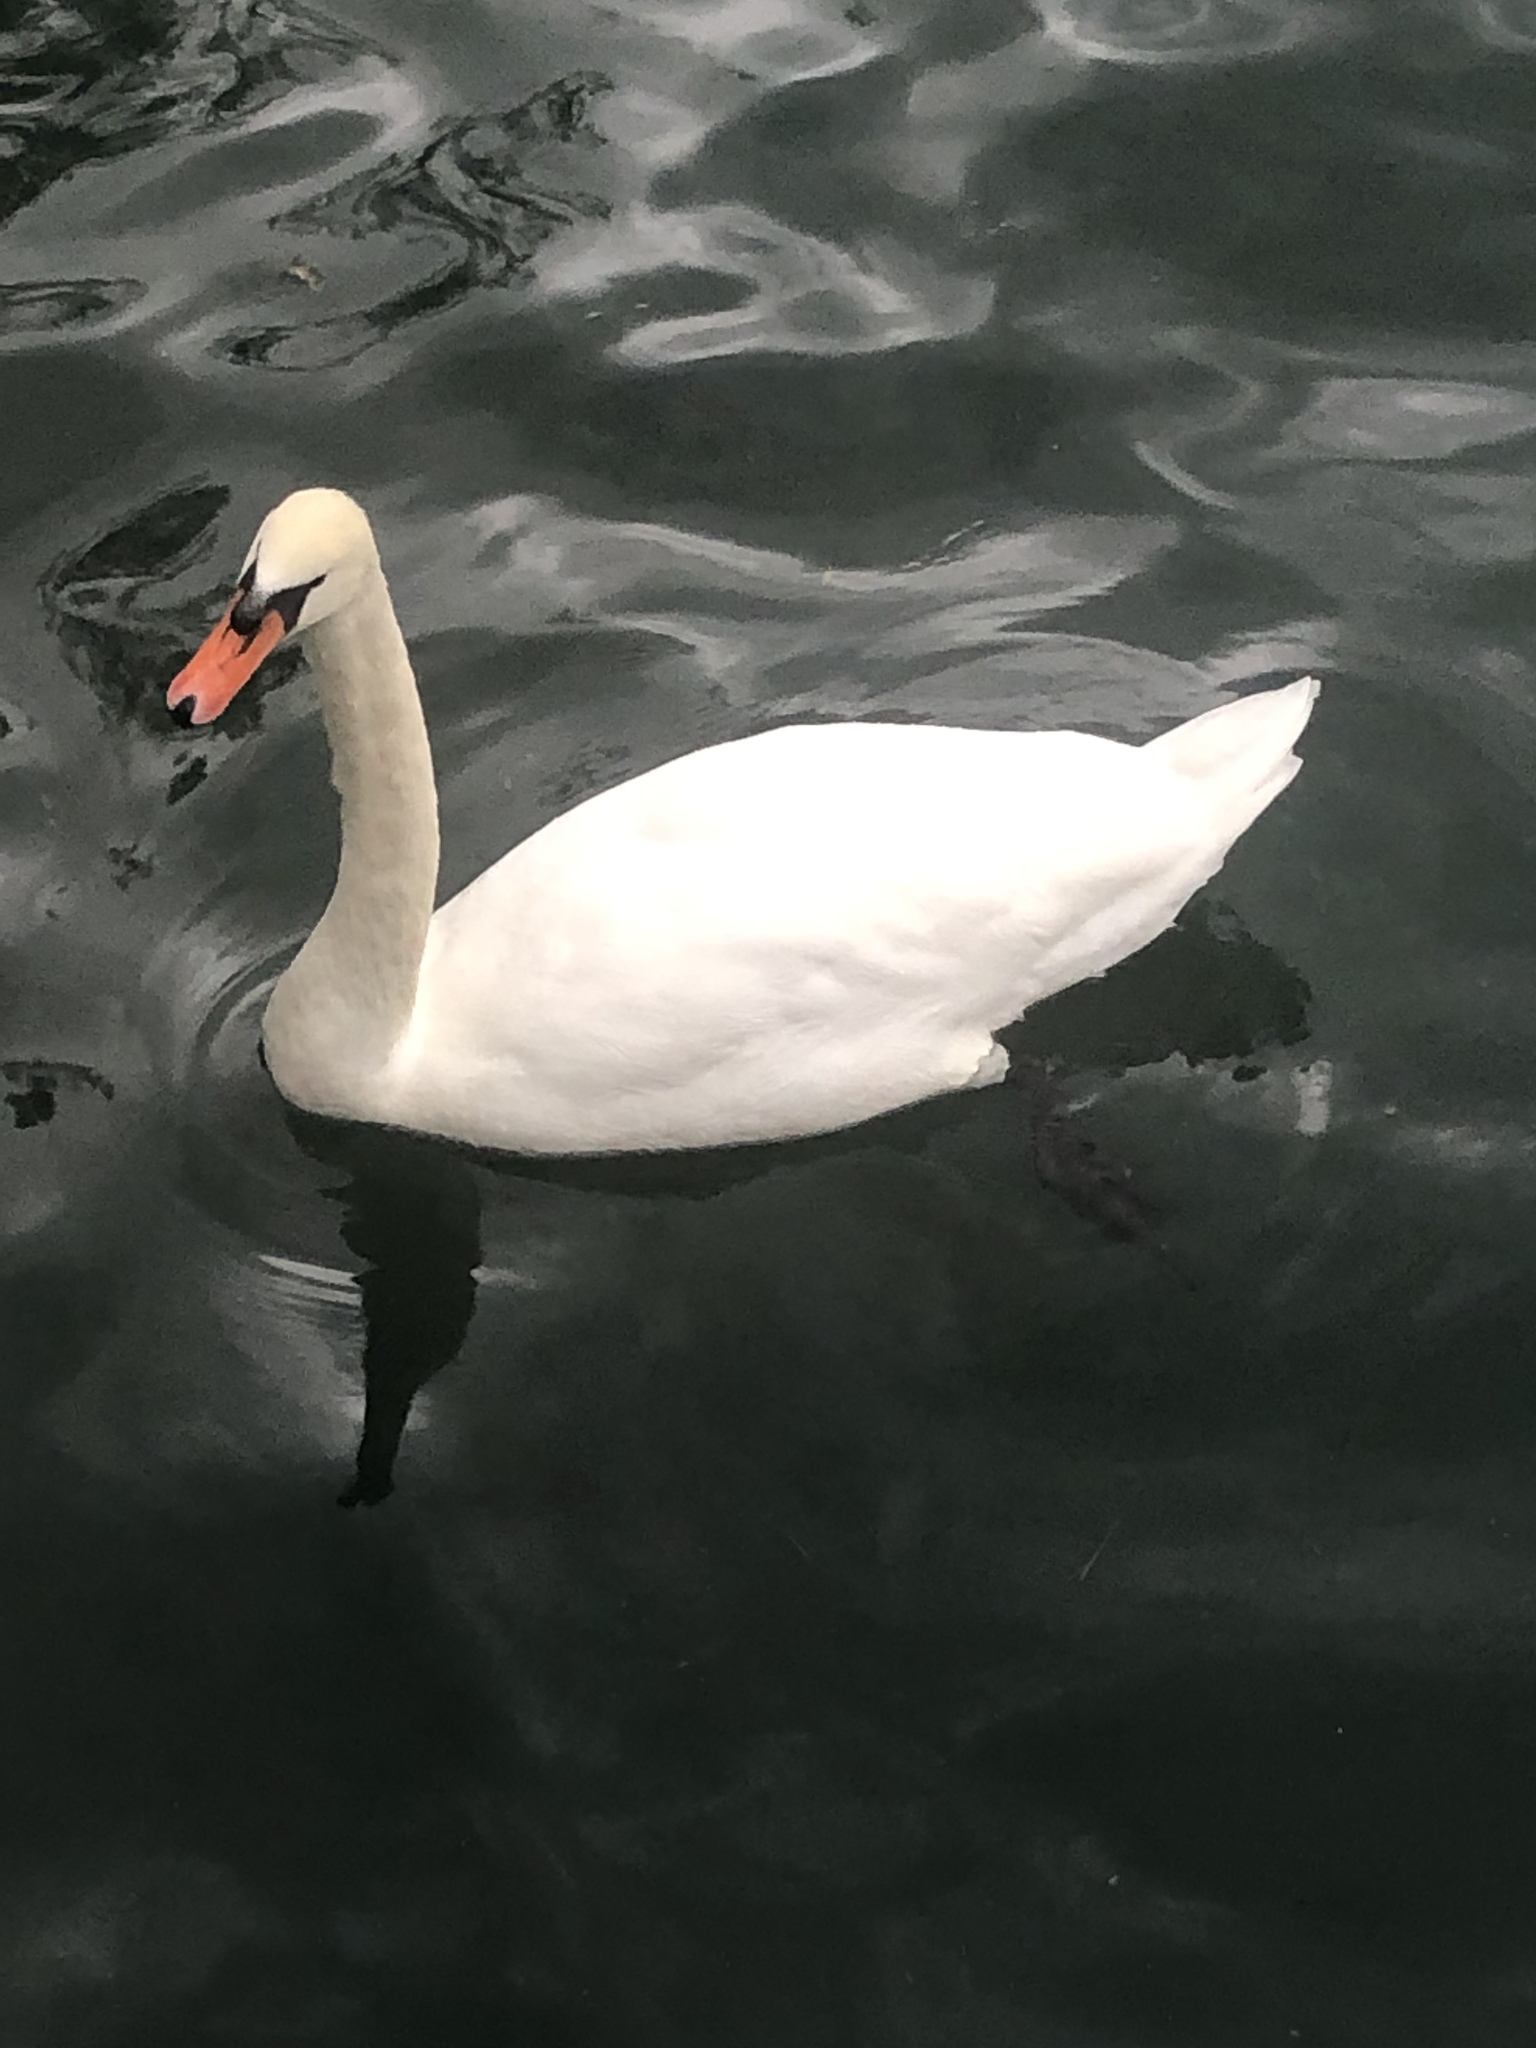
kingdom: Animalia
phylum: Chordata
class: Aves
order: Anseriformes
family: Anatidae
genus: Cygnus
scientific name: Cygnus olor
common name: Mute swan
